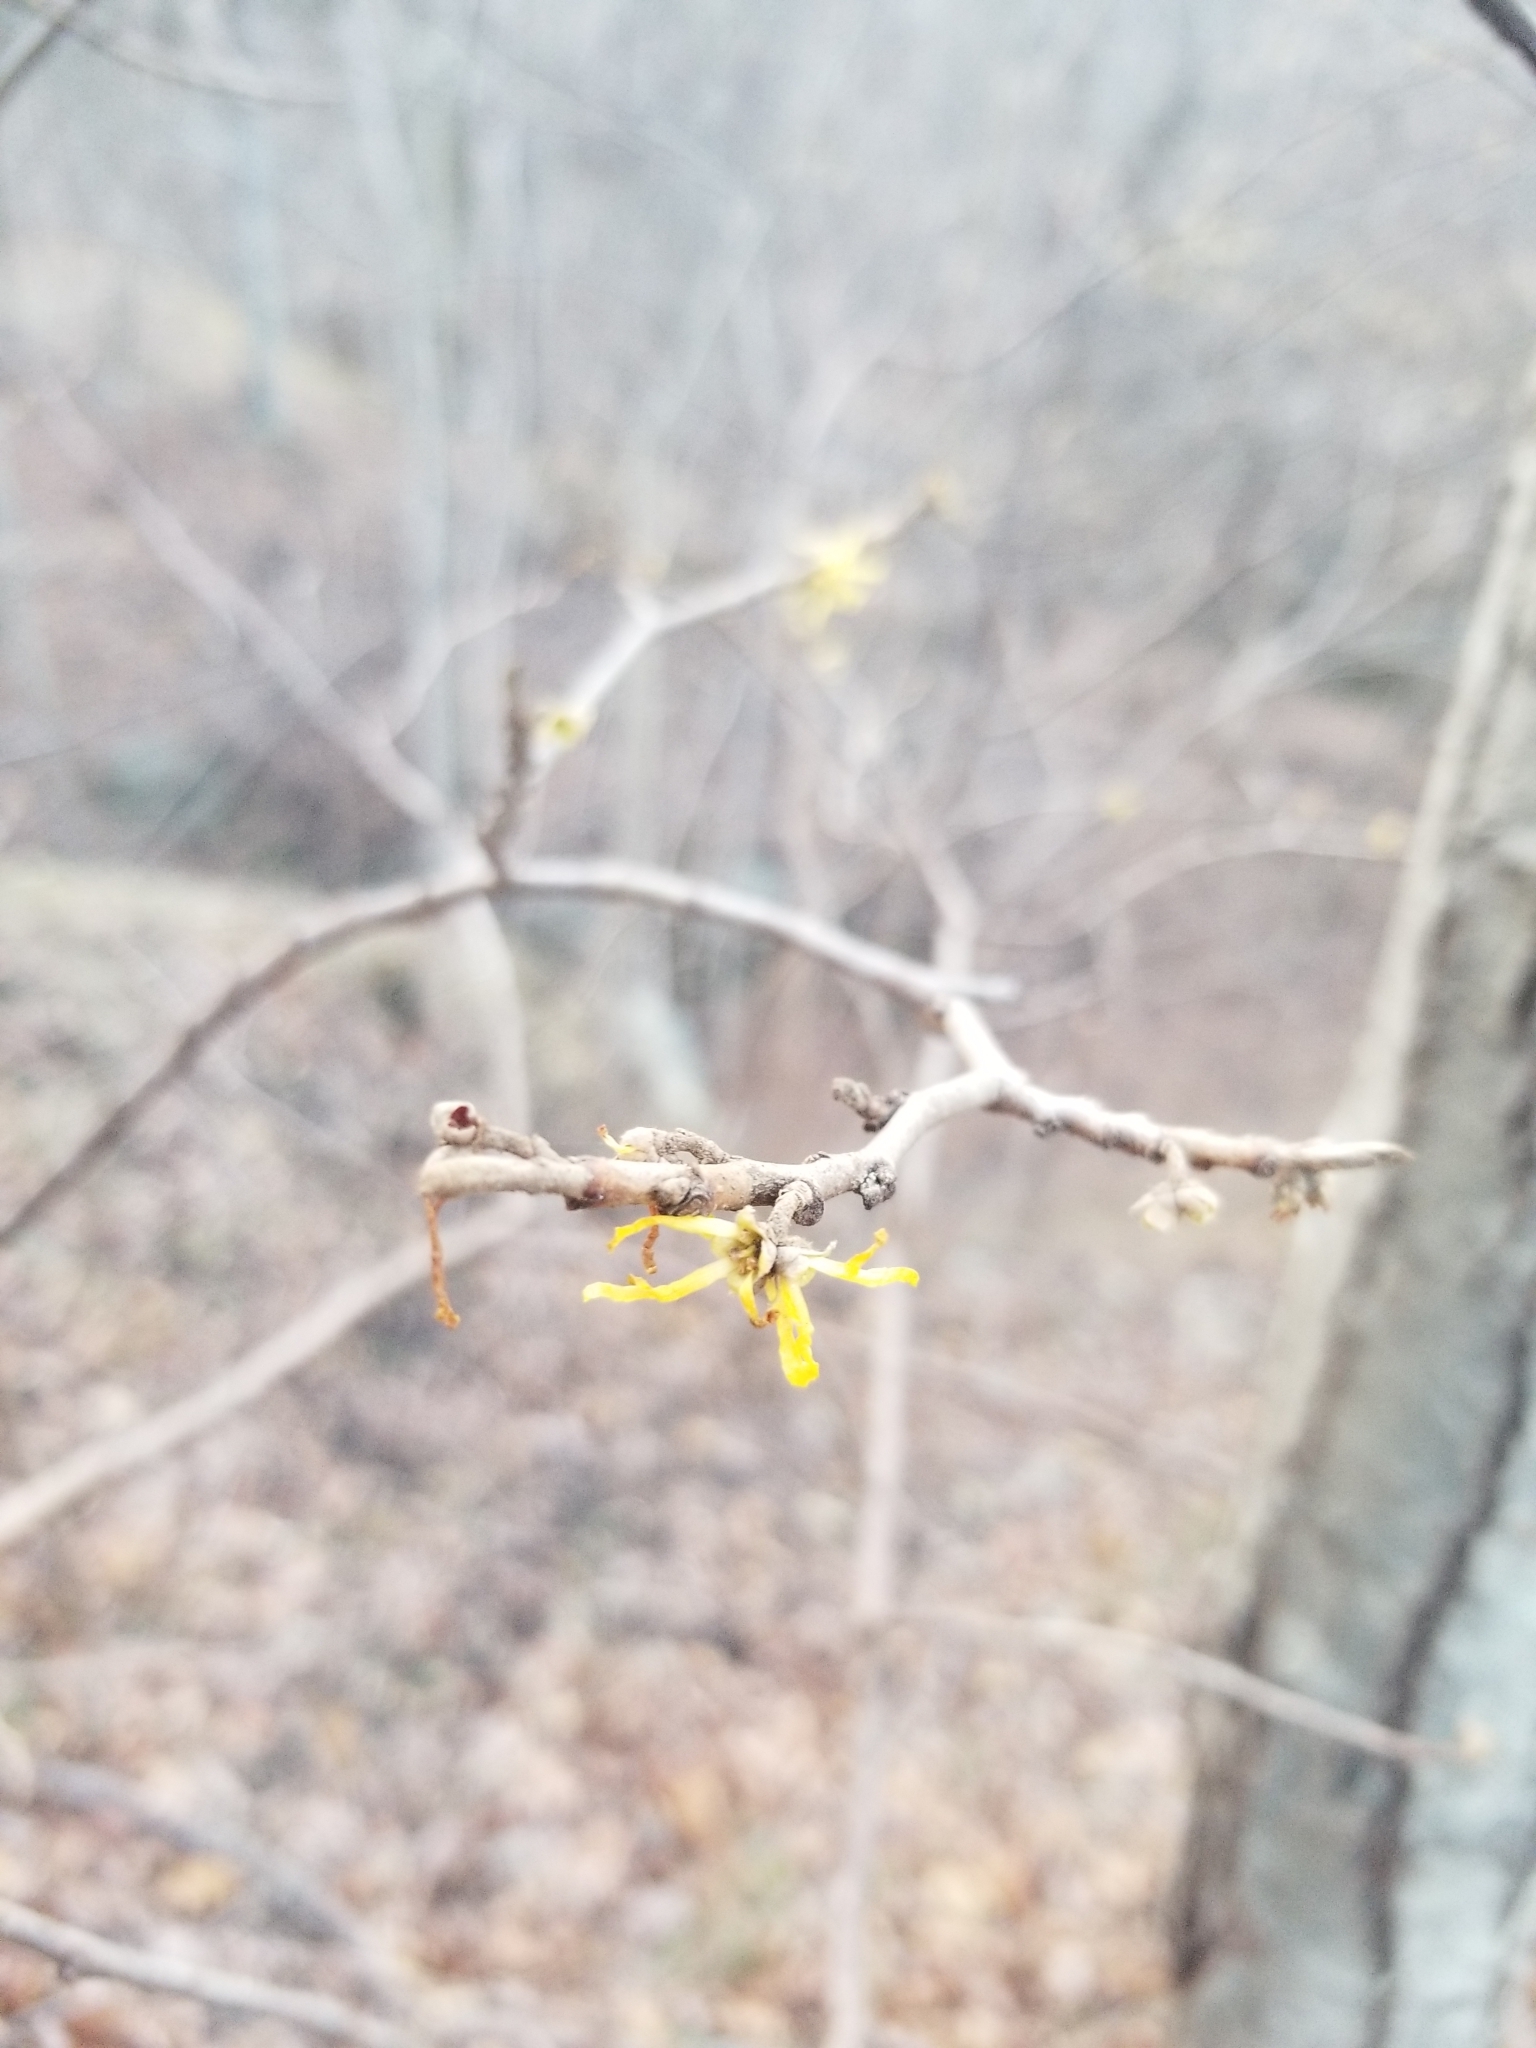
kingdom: Plantae
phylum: Tracheophyta
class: Magnoliopsida
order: Saxifragales
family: Hamamelidaceae
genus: Hamamelis
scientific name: Hamamelis virginiana
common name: Witch-hazel
